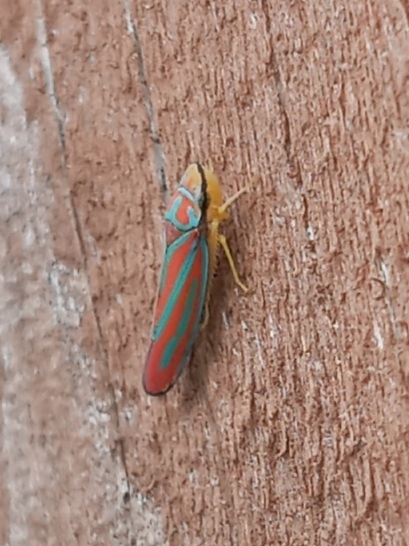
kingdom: Animalia
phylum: Arthropoda
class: Insecta
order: Hemiptera
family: Cicadellidae
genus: Graphocephala
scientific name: Graphocephala coccinea
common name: Candy-striped leafhopper
